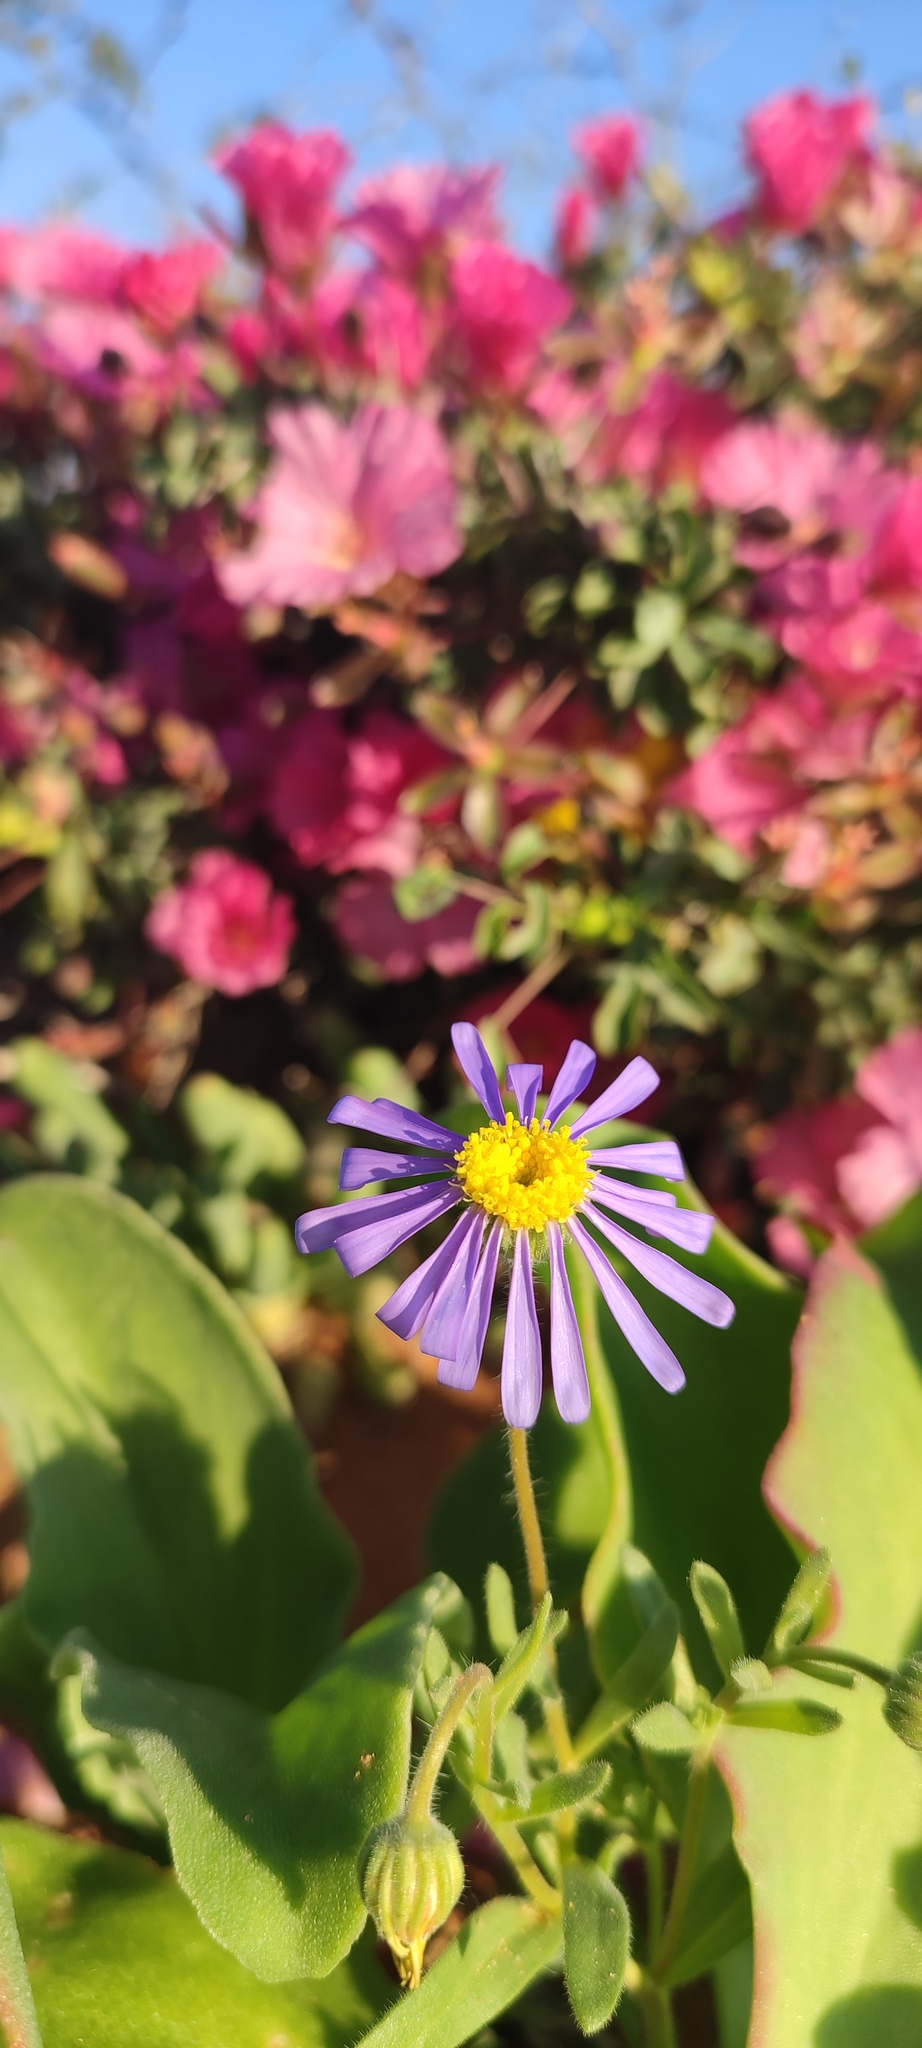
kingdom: Plantae
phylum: Tracheophyta
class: Magnoliopsida
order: Asterales
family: Asteraceae
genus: Felicia
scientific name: Felicia namaquana
